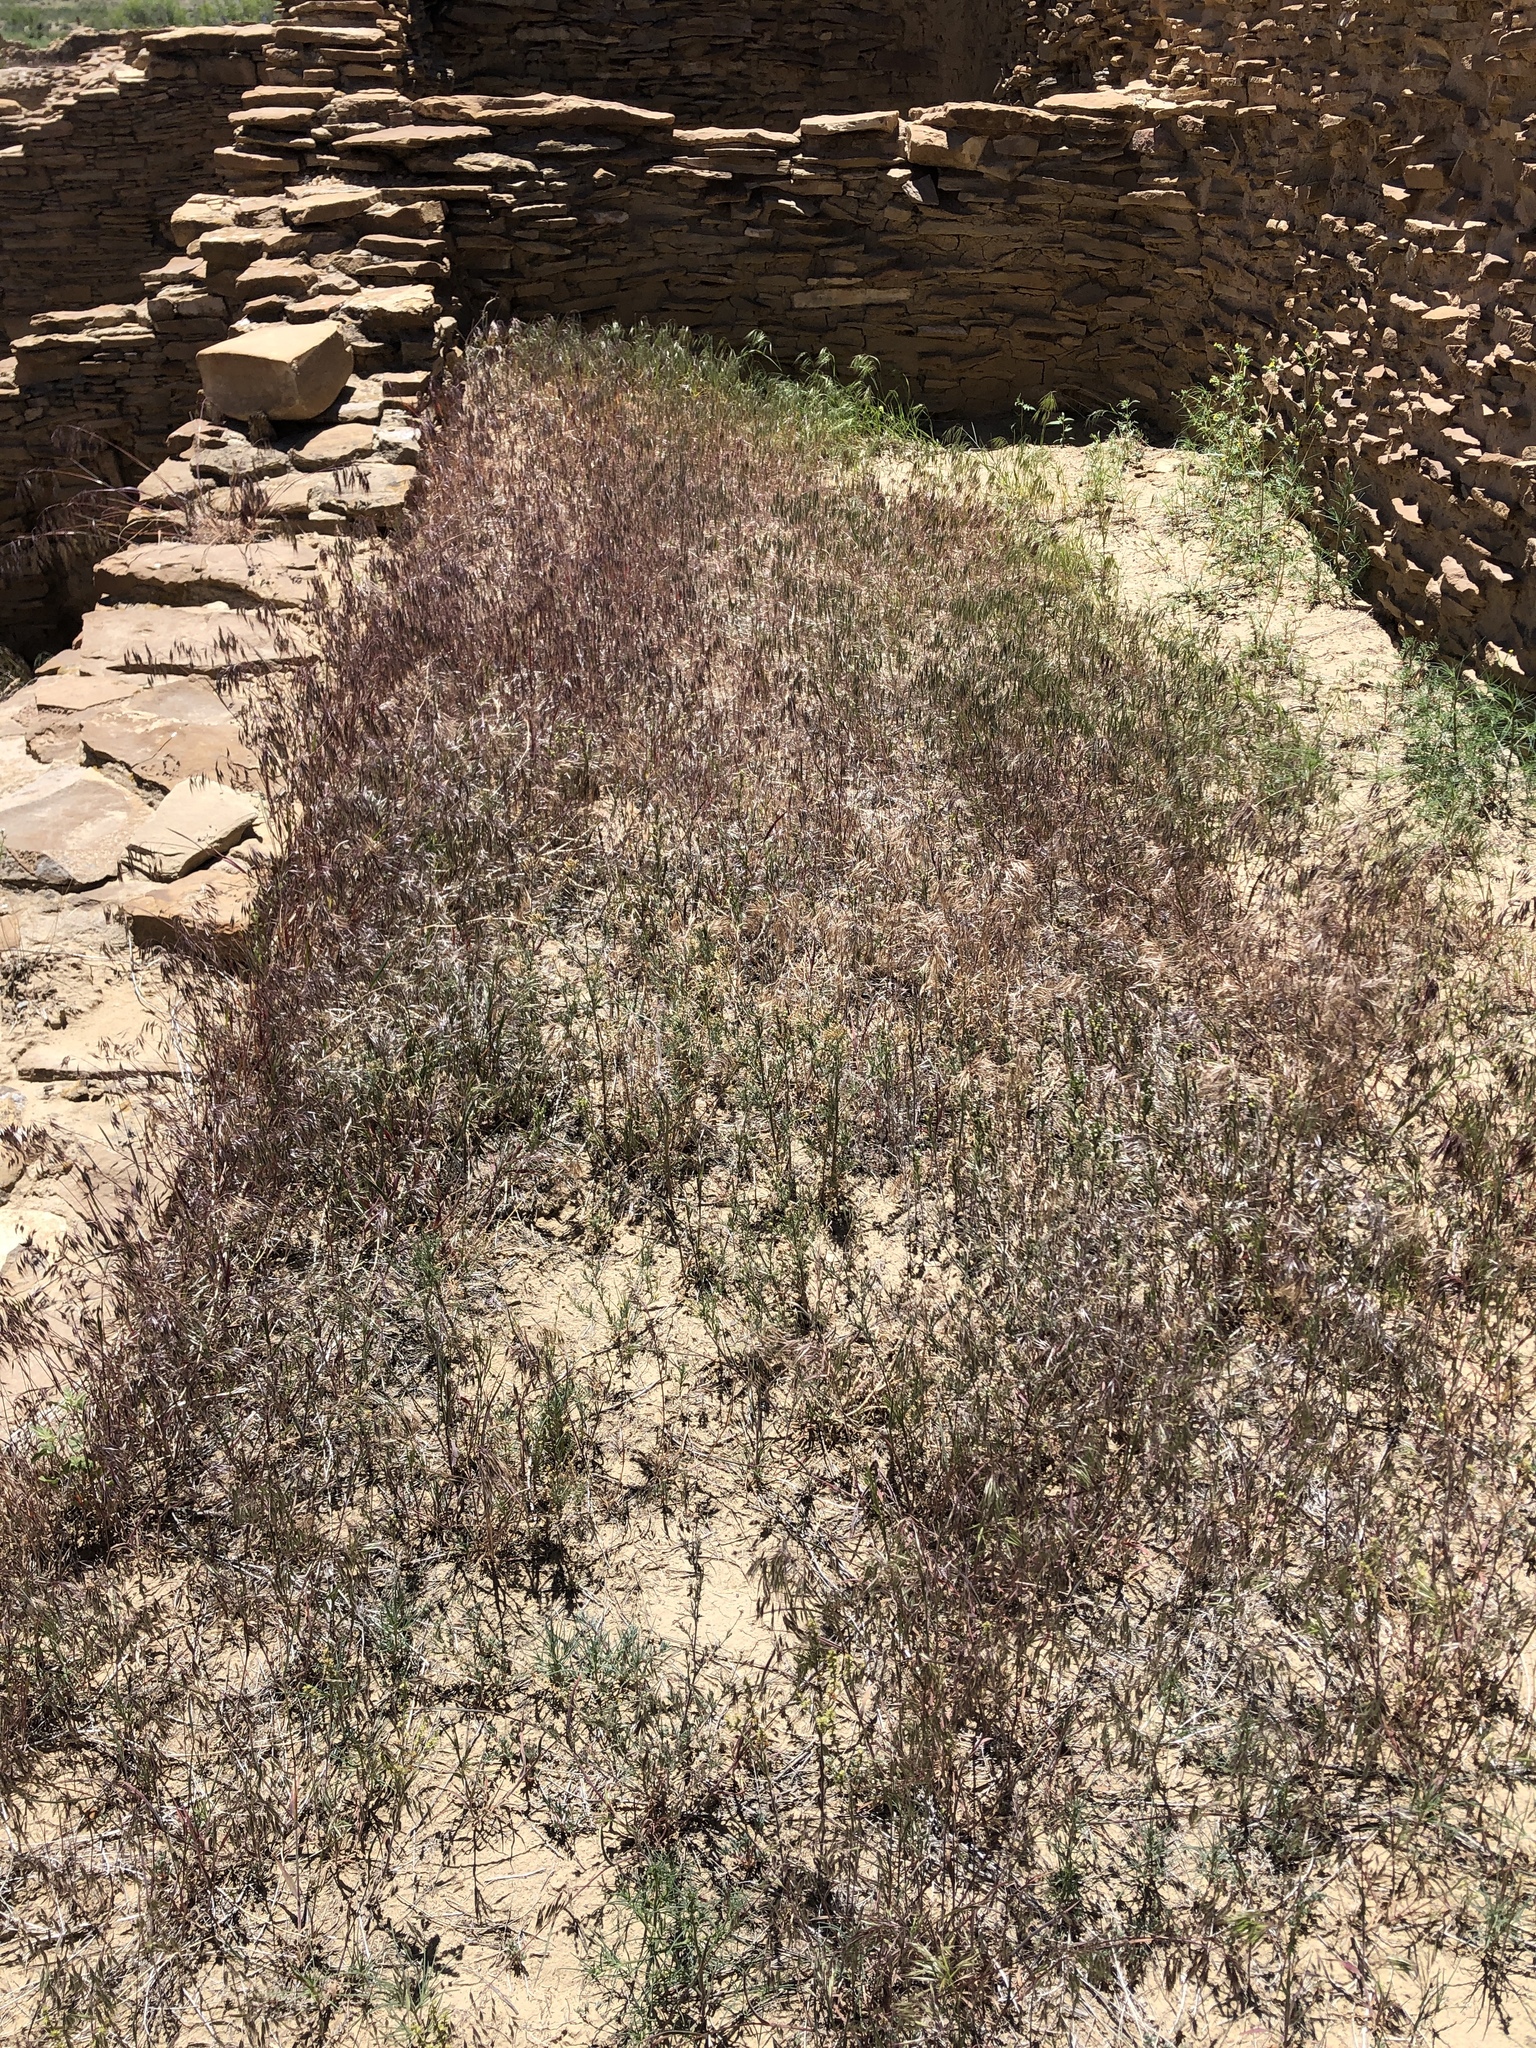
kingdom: Plantae
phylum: Tracheophyta
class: Liliopsida
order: Poales
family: Poaceae
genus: Bromus
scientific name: Bromus tectorum
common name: Cheatgrass
